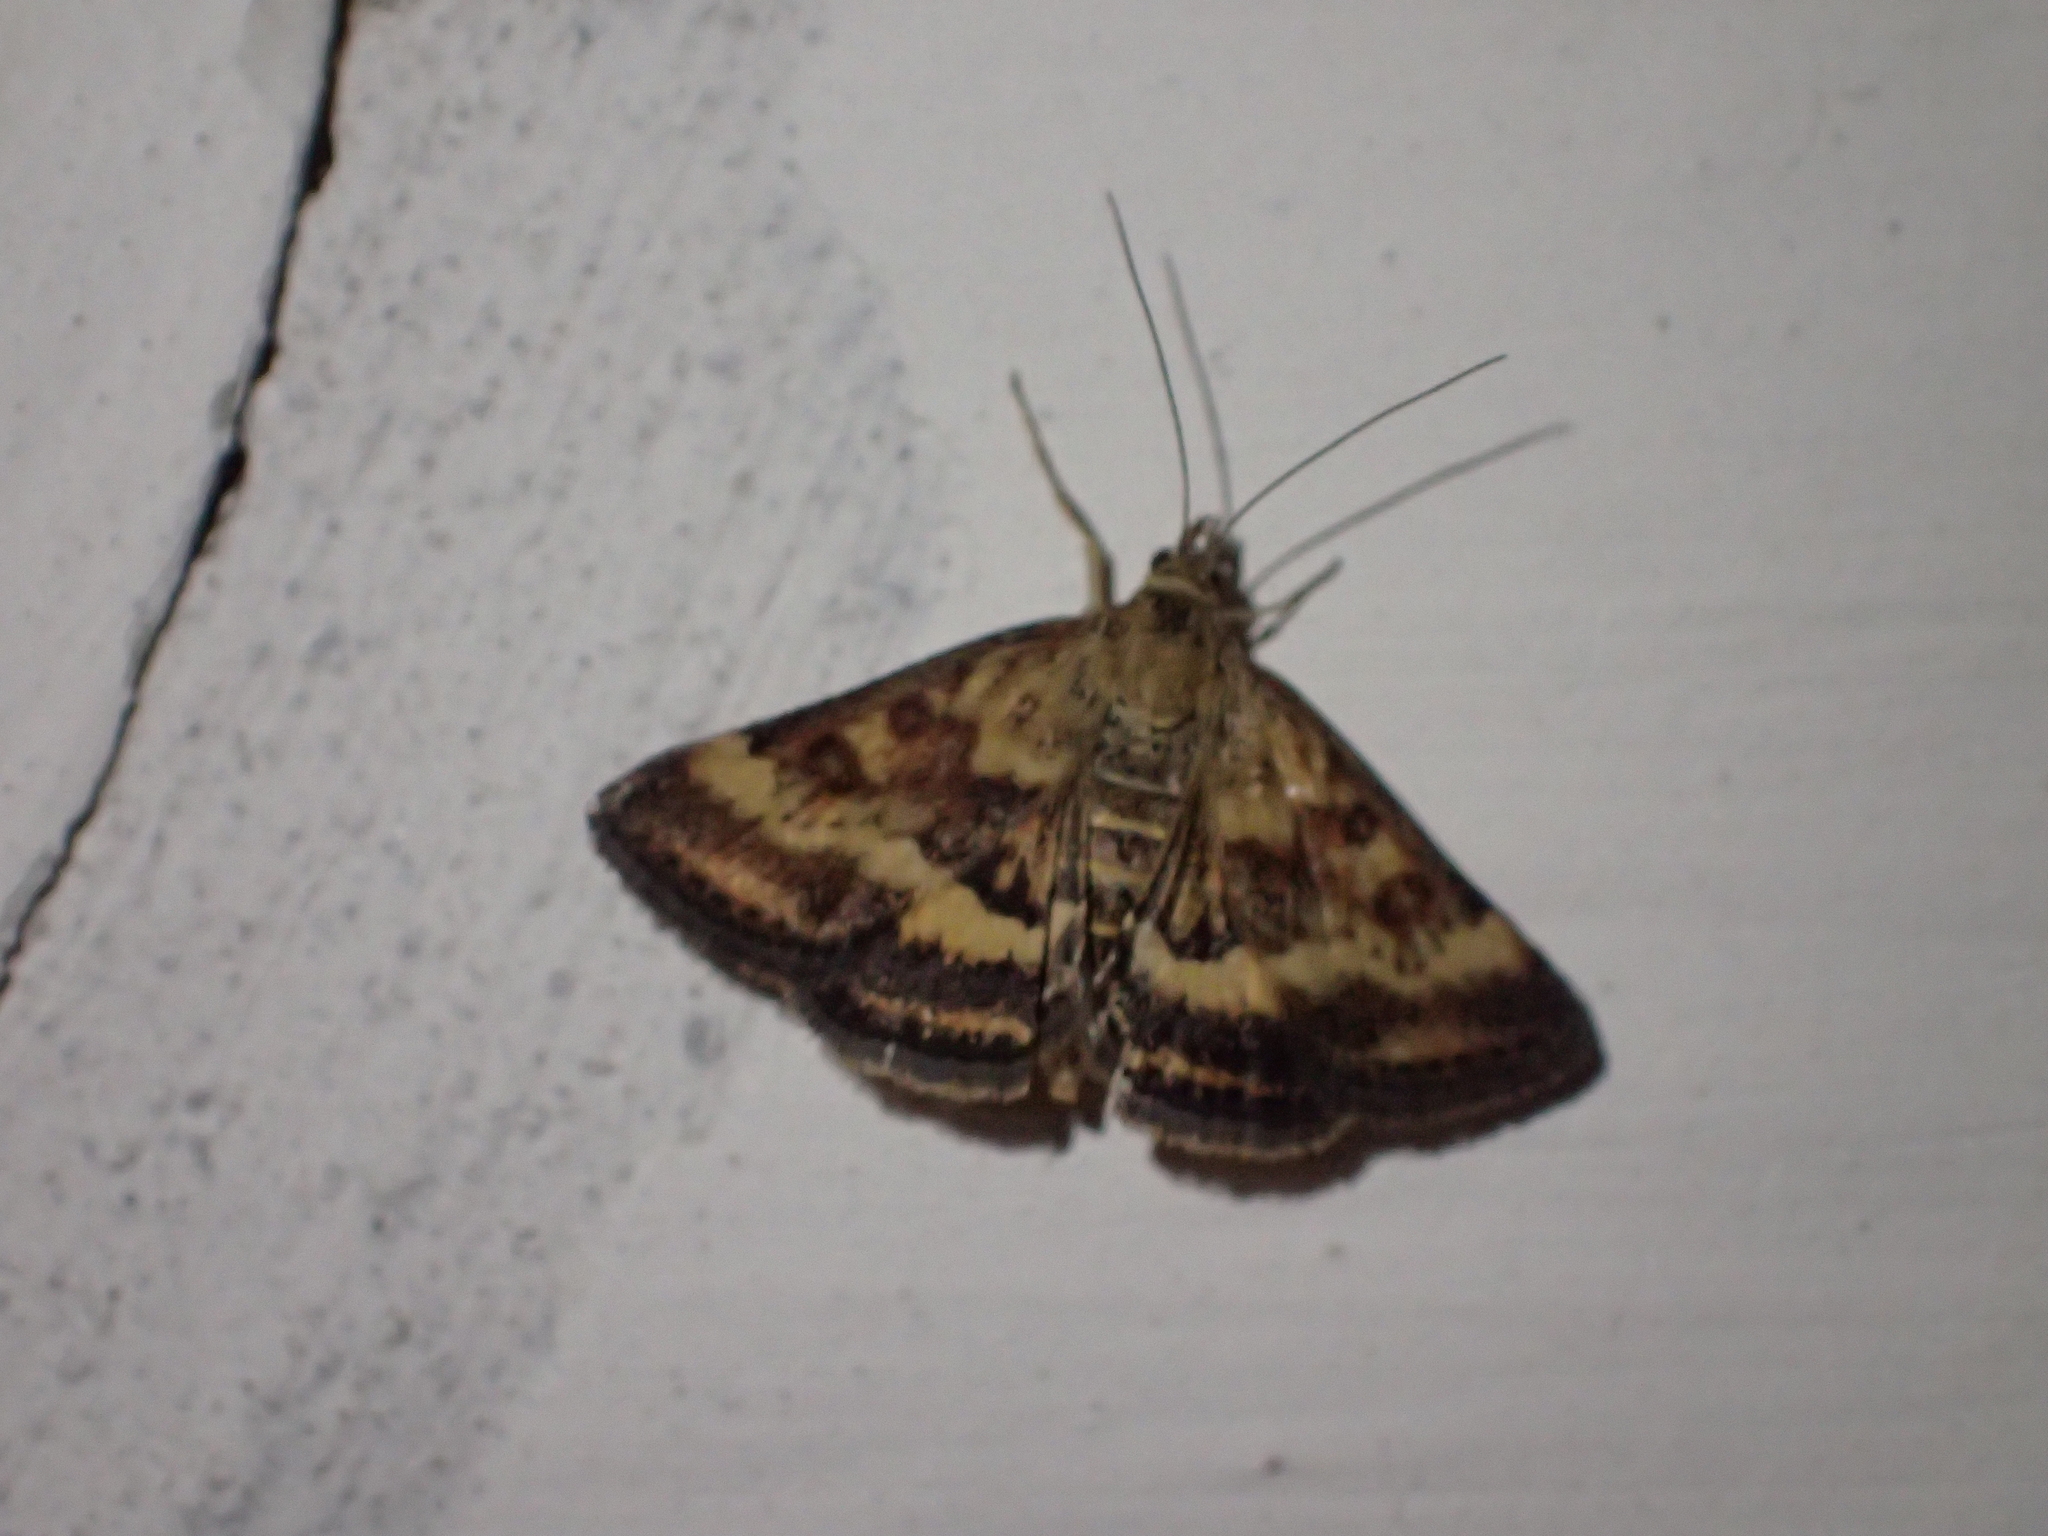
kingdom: Animalia
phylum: Arthropoda
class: Insecta
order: Lepidoptera
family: Crambidae
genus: Pyrausta
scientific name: Pyrausta despicata
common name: Straw-barred pearl
